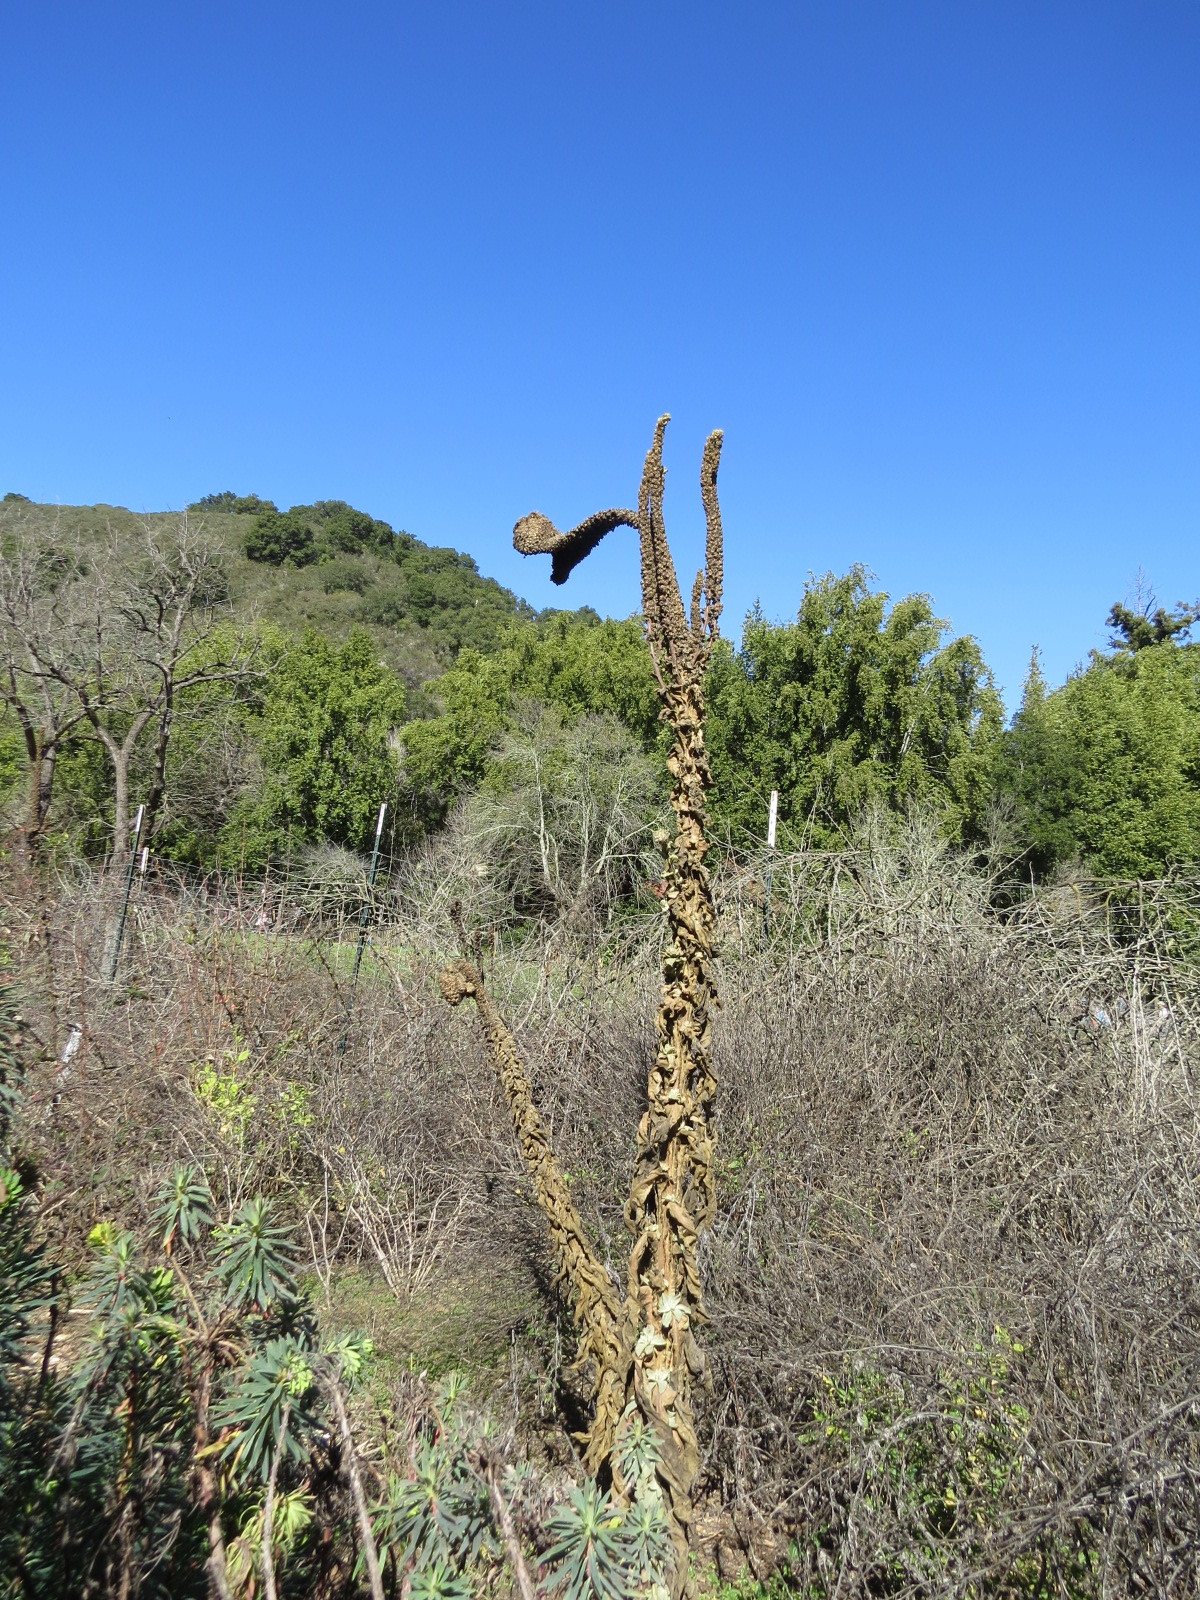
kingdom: Plantae
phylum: Tracheophyta
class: Magnoliopsida
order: Lamiales
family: Scrophulariaceae
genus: Verbascum
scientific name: Verbascum thapsus
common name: Common mullein
